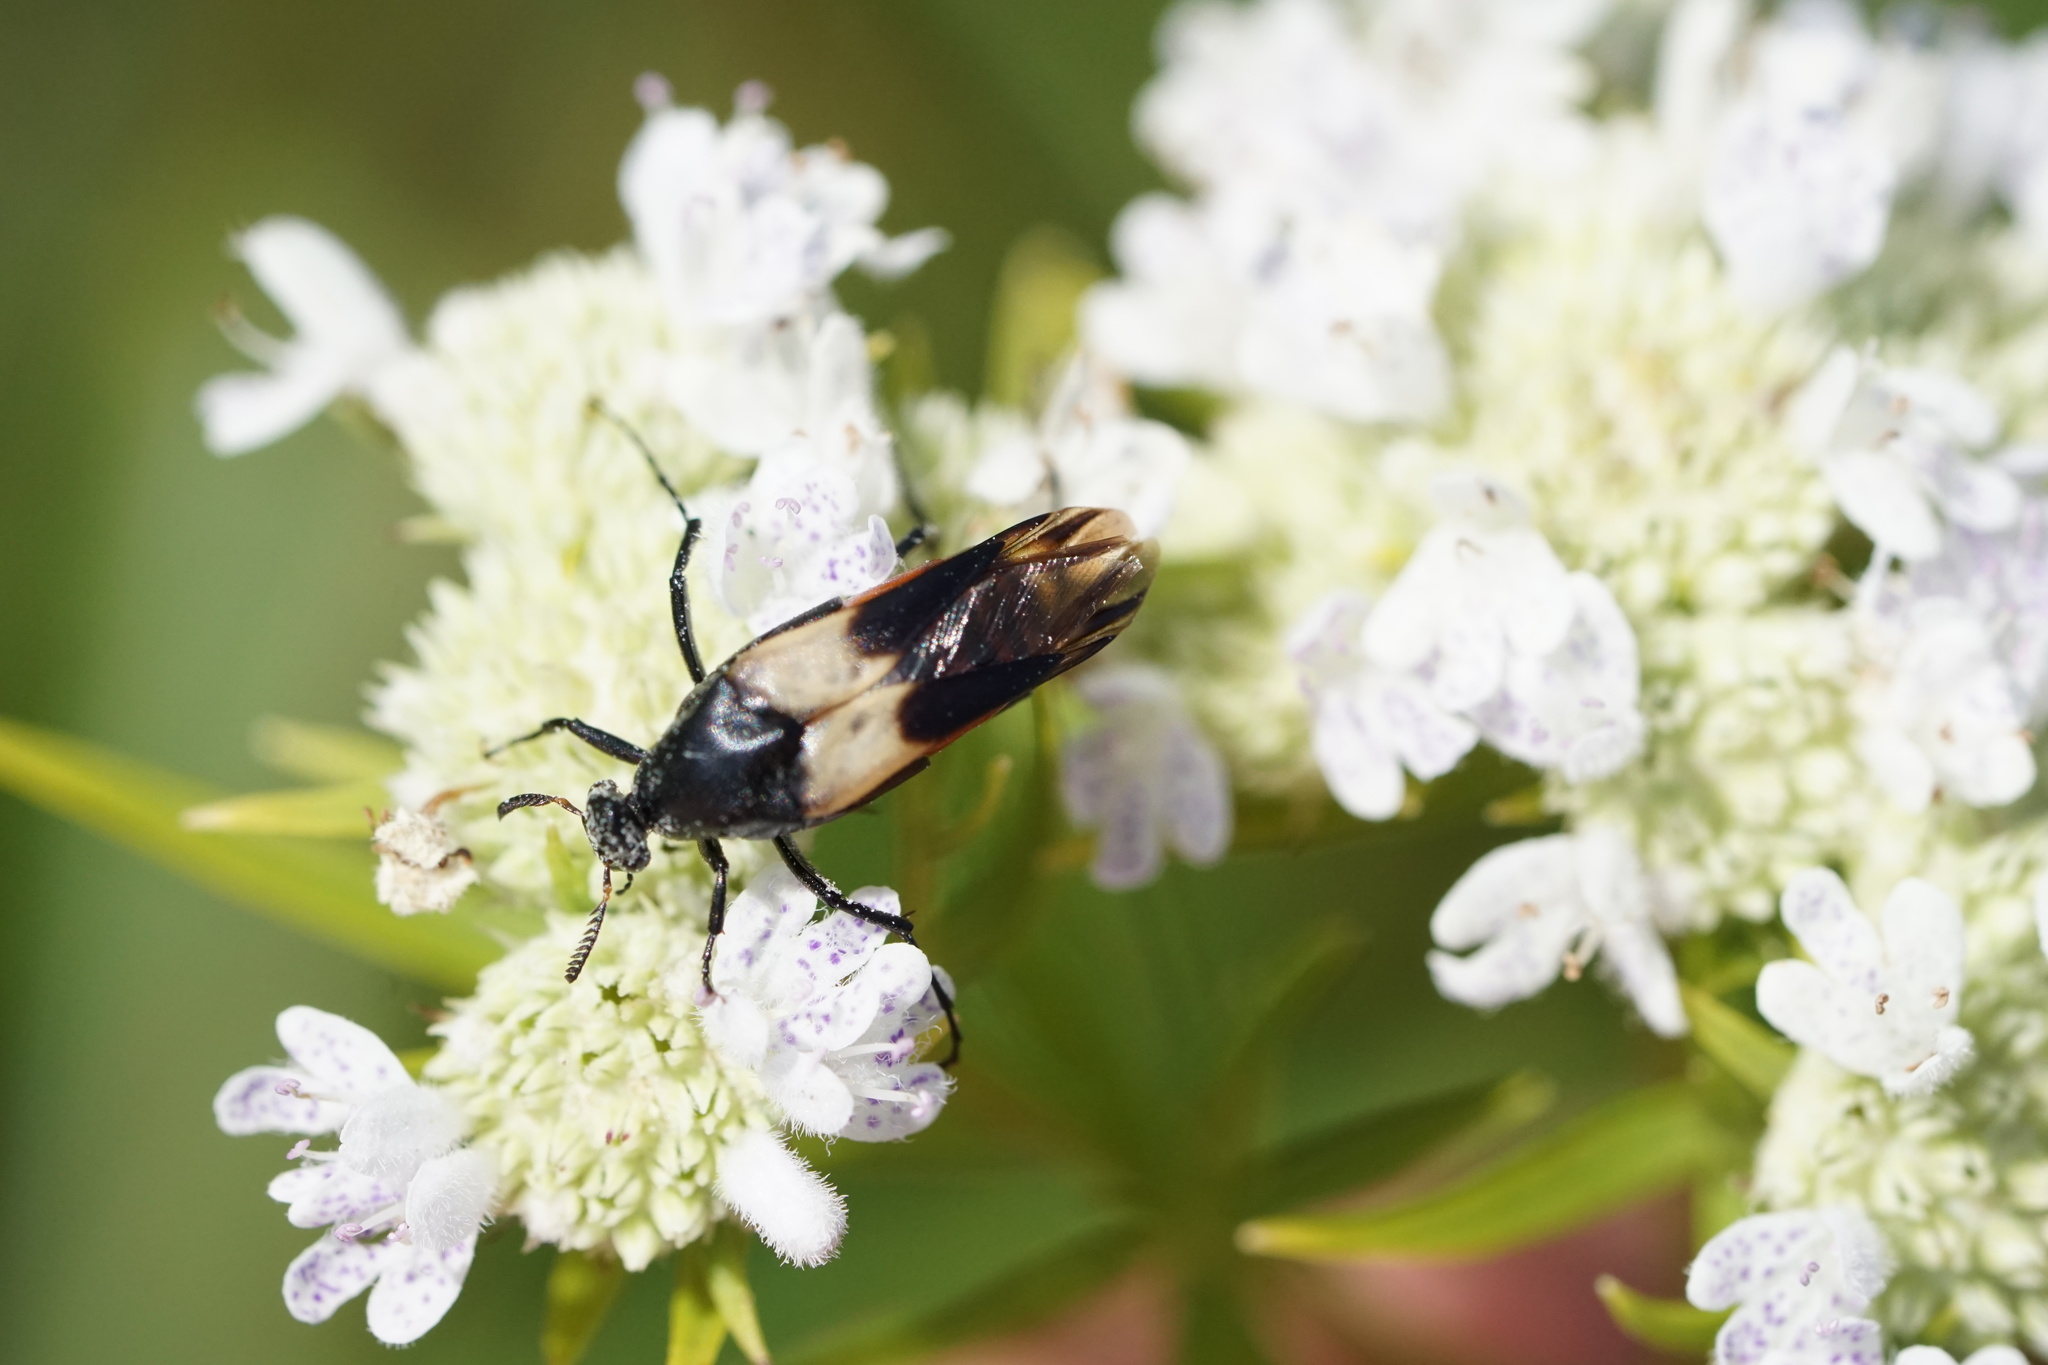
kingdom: Animalia
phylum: Arthropoda
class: Insecta
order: Coleoptera
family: Ripiphoridae
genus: Macrosiagon
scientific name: Macrosiagon flavipennis
